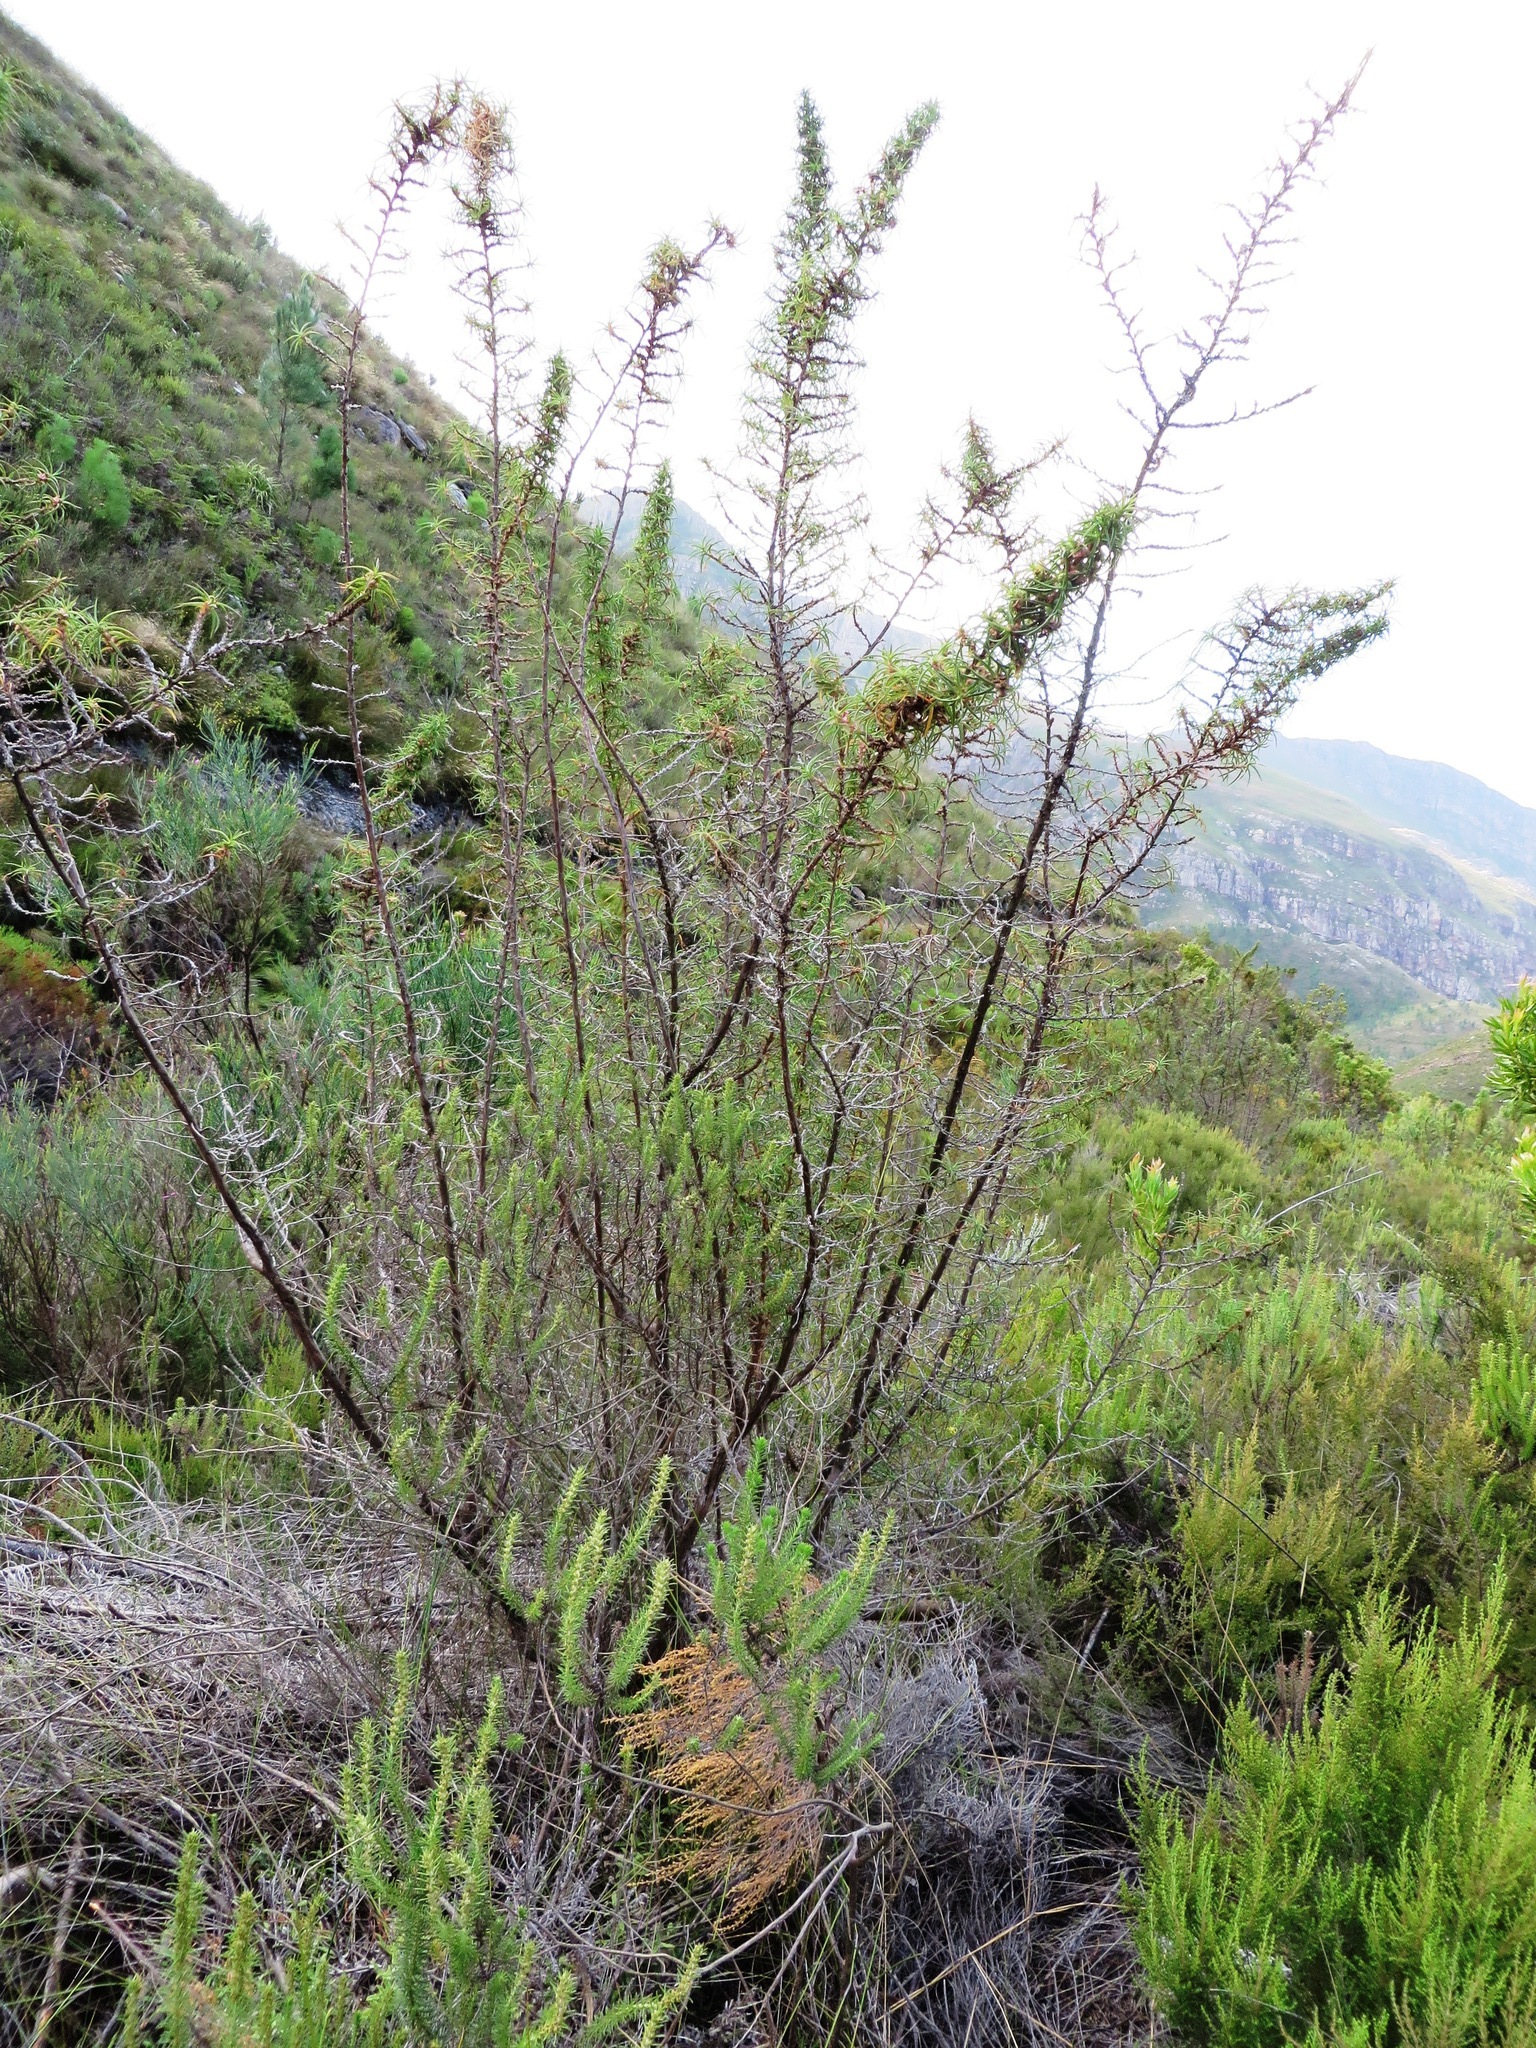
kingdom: Plantae
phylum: Tracheophyta
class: Magnoliopsida
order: Rosales
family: Rosaceae
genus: Cliffortia
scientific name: Cliffortia dregeana
